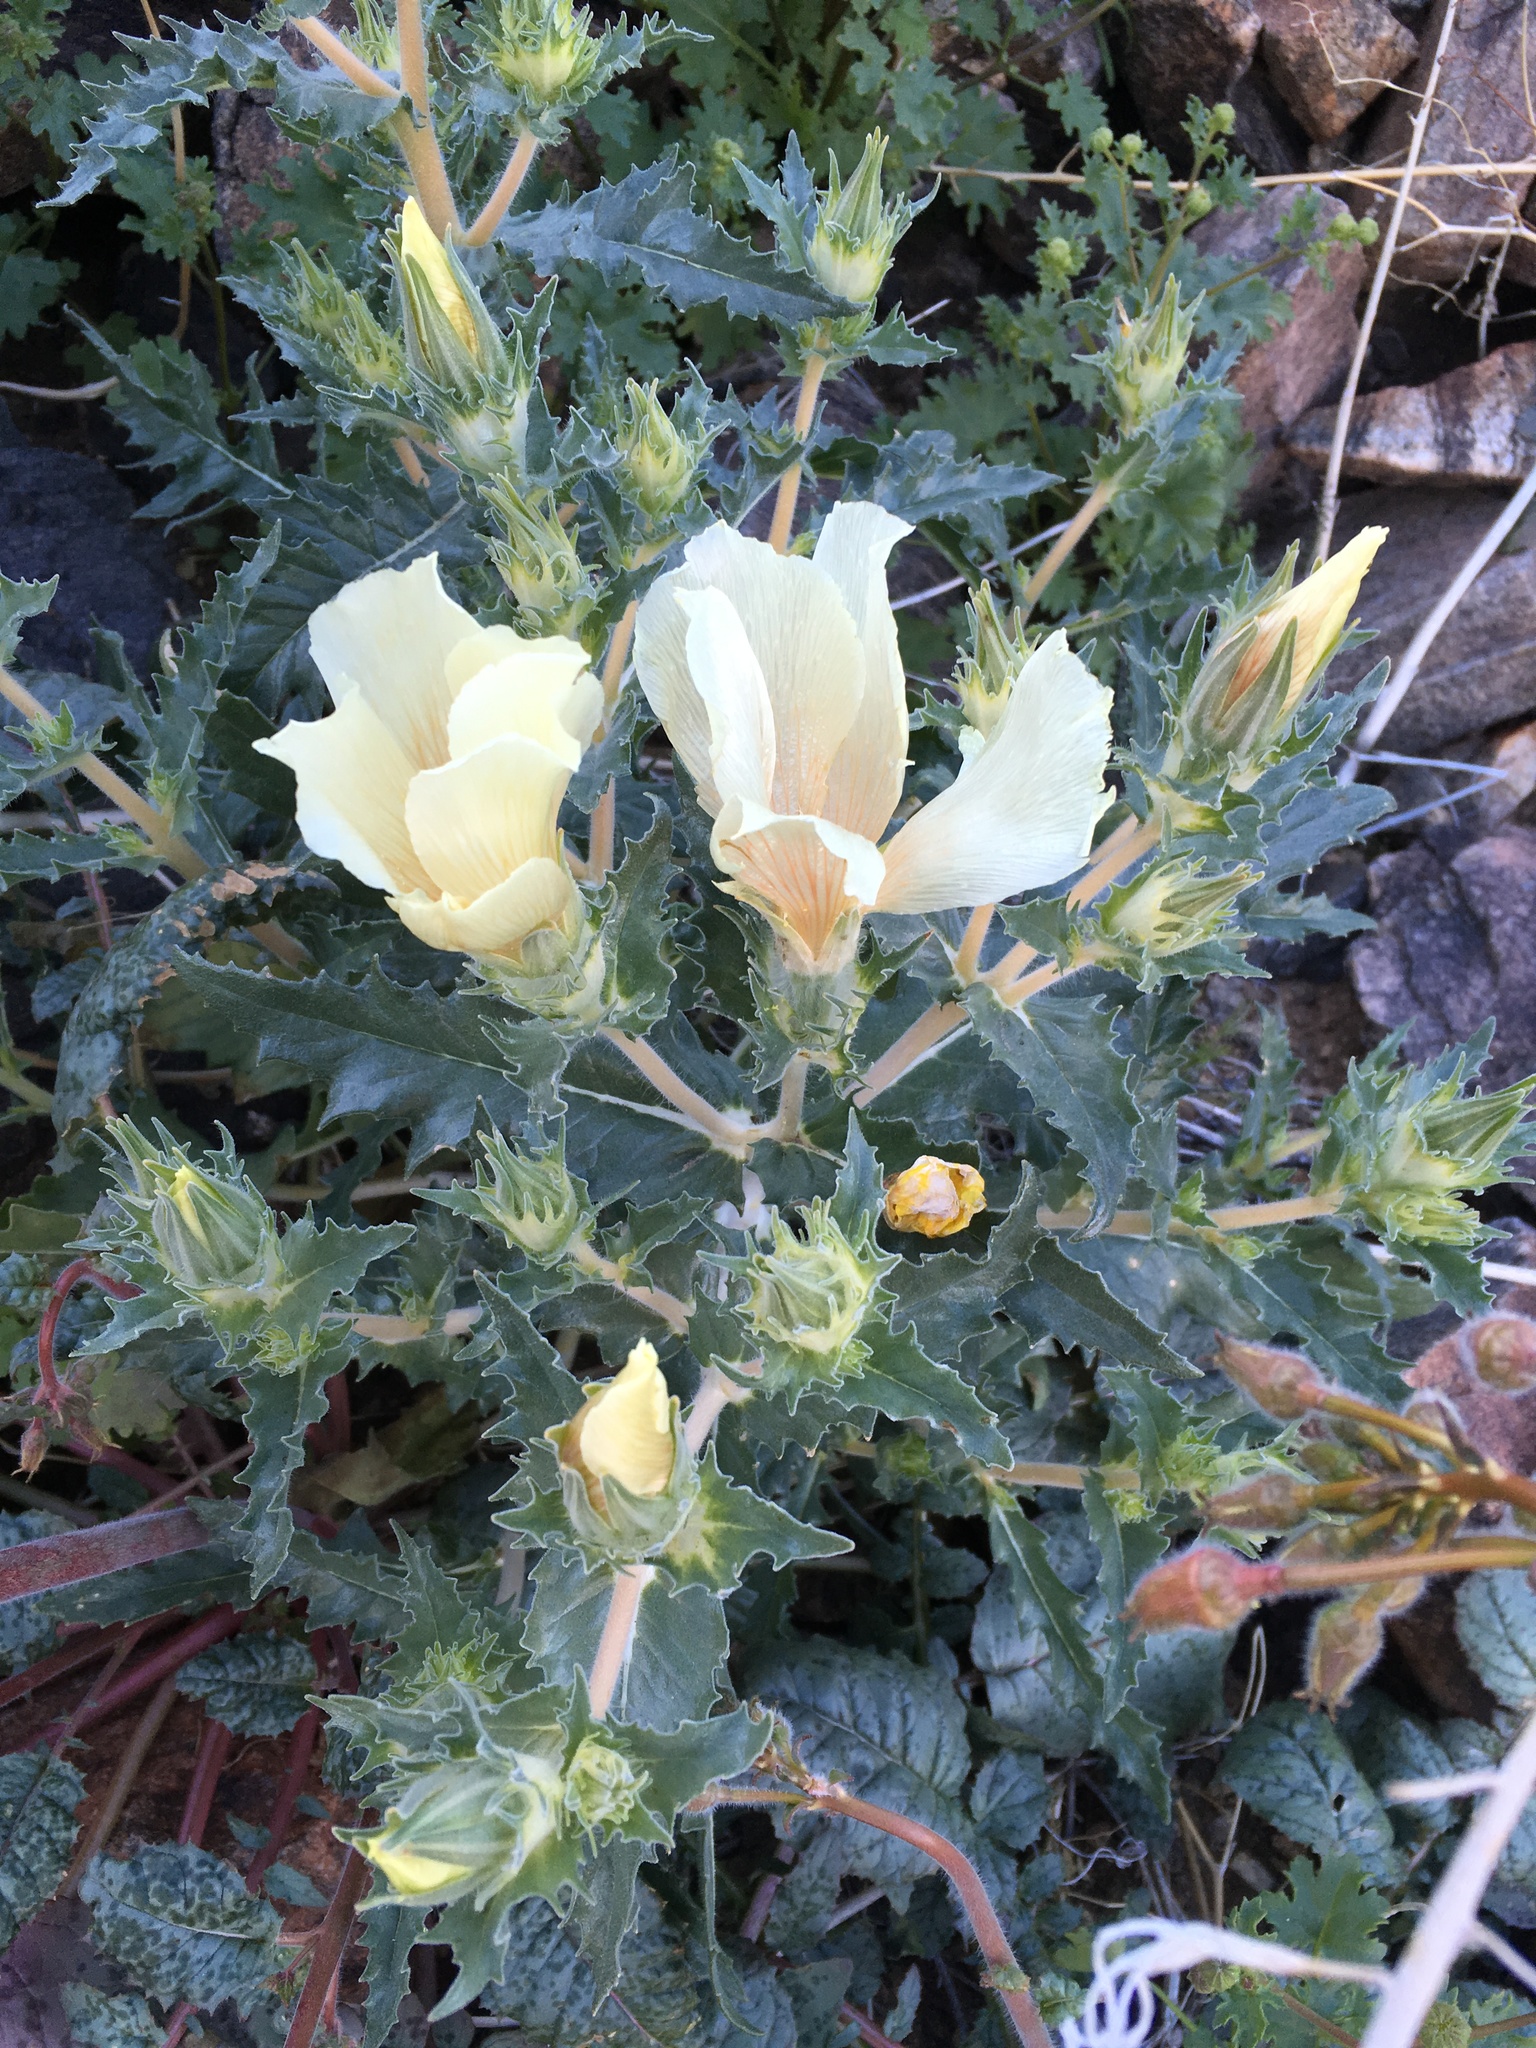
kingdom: Plantae
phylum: Tracheophyta
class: Magnoliopsida
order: Cornales
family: Loasaceae
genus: Mentzelia
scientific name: Mentzelia involucrata
